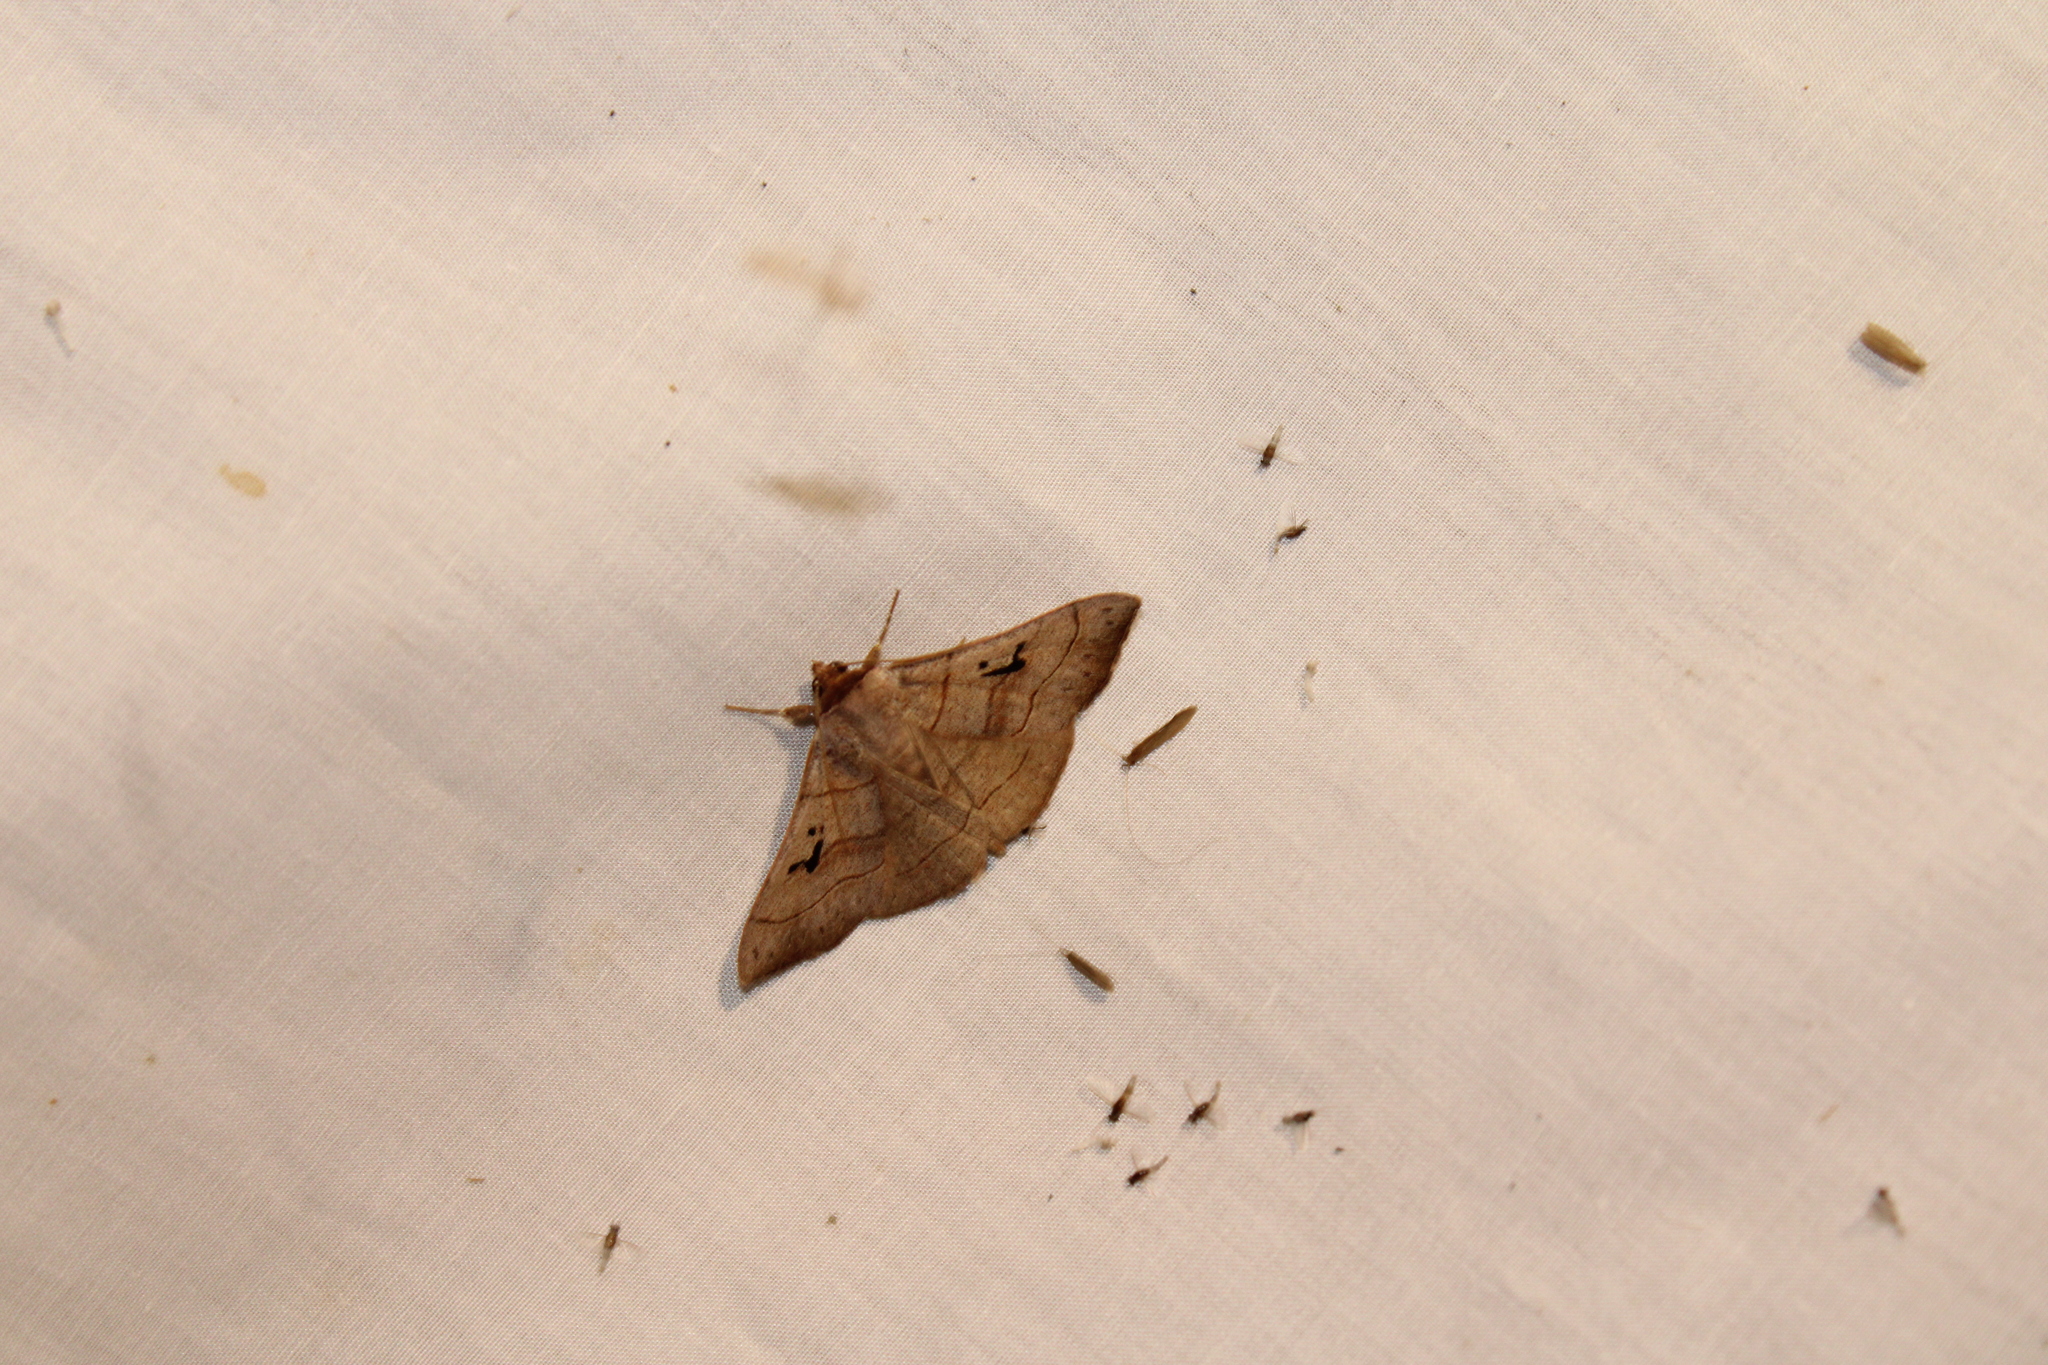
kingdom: Animalia
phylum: Arthropoda
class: Insecta
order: Lepidoptera
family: Erebidae
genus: Panopoda
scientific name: Panopoda carneicosta
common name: Brown panopoda moth
